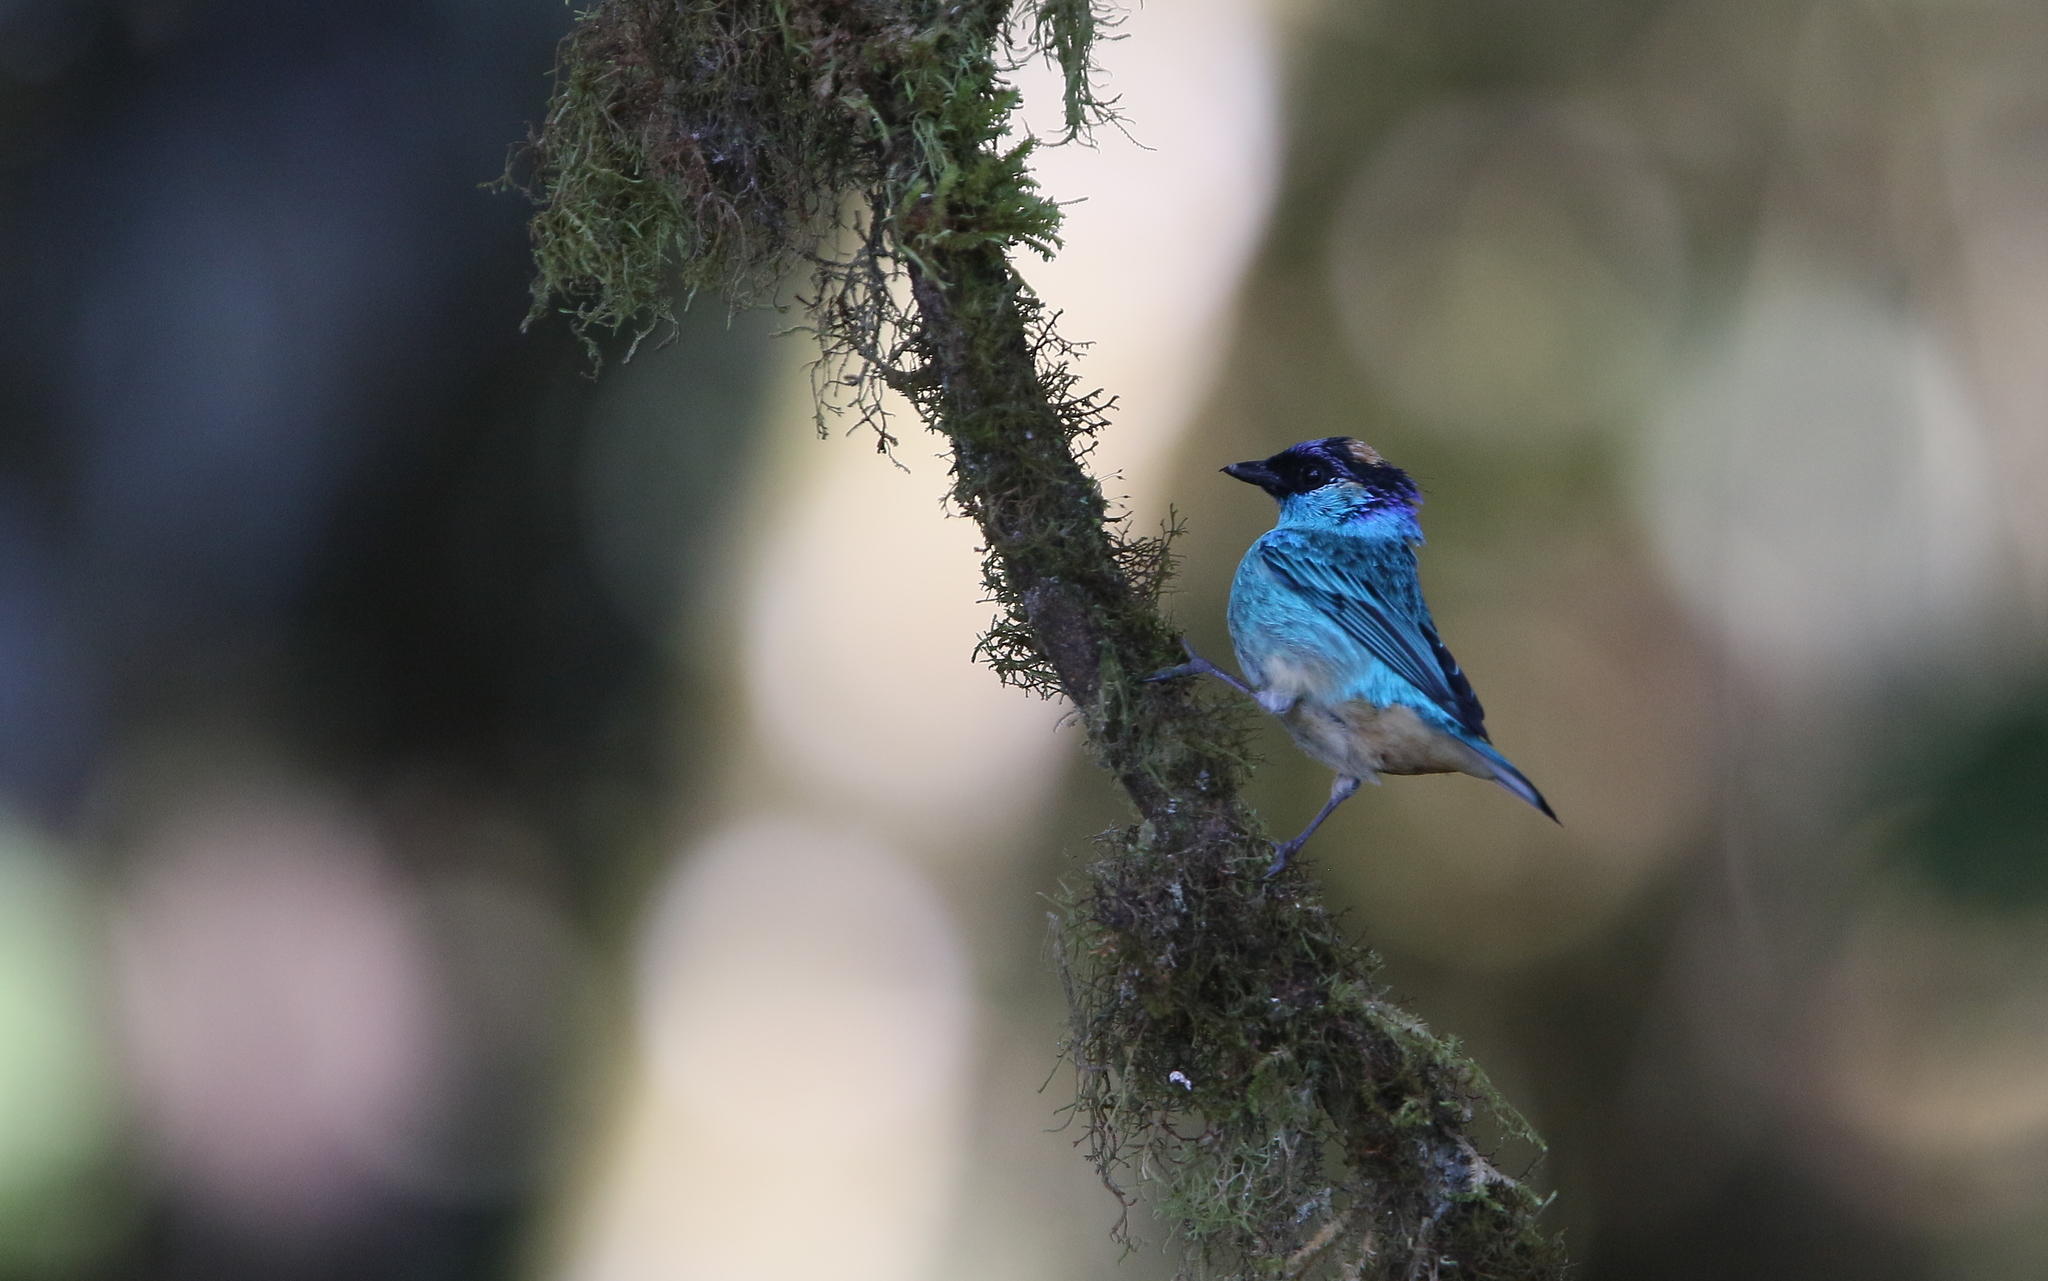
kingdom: Animalia
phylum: Chordata
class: Aves
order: Passeriformes
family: Thraupidae
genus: Chalcothraupis
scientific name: Chalcothraupis ruficervix
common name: Golden-naped tanager
